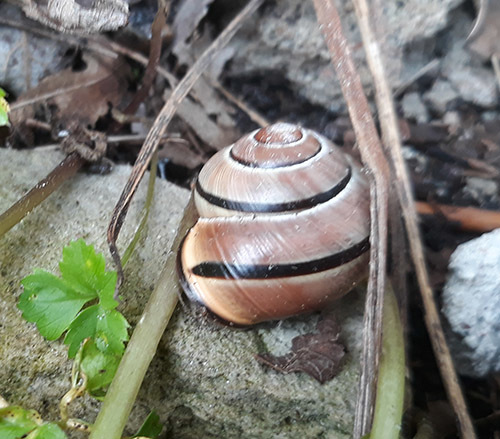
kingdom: Animalia
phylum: Mollusca
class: Gastropoda
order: Stylommatophora
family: Helicidae
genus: Cepaea
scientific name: Cepaea nemoralis
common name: Grovesnail
